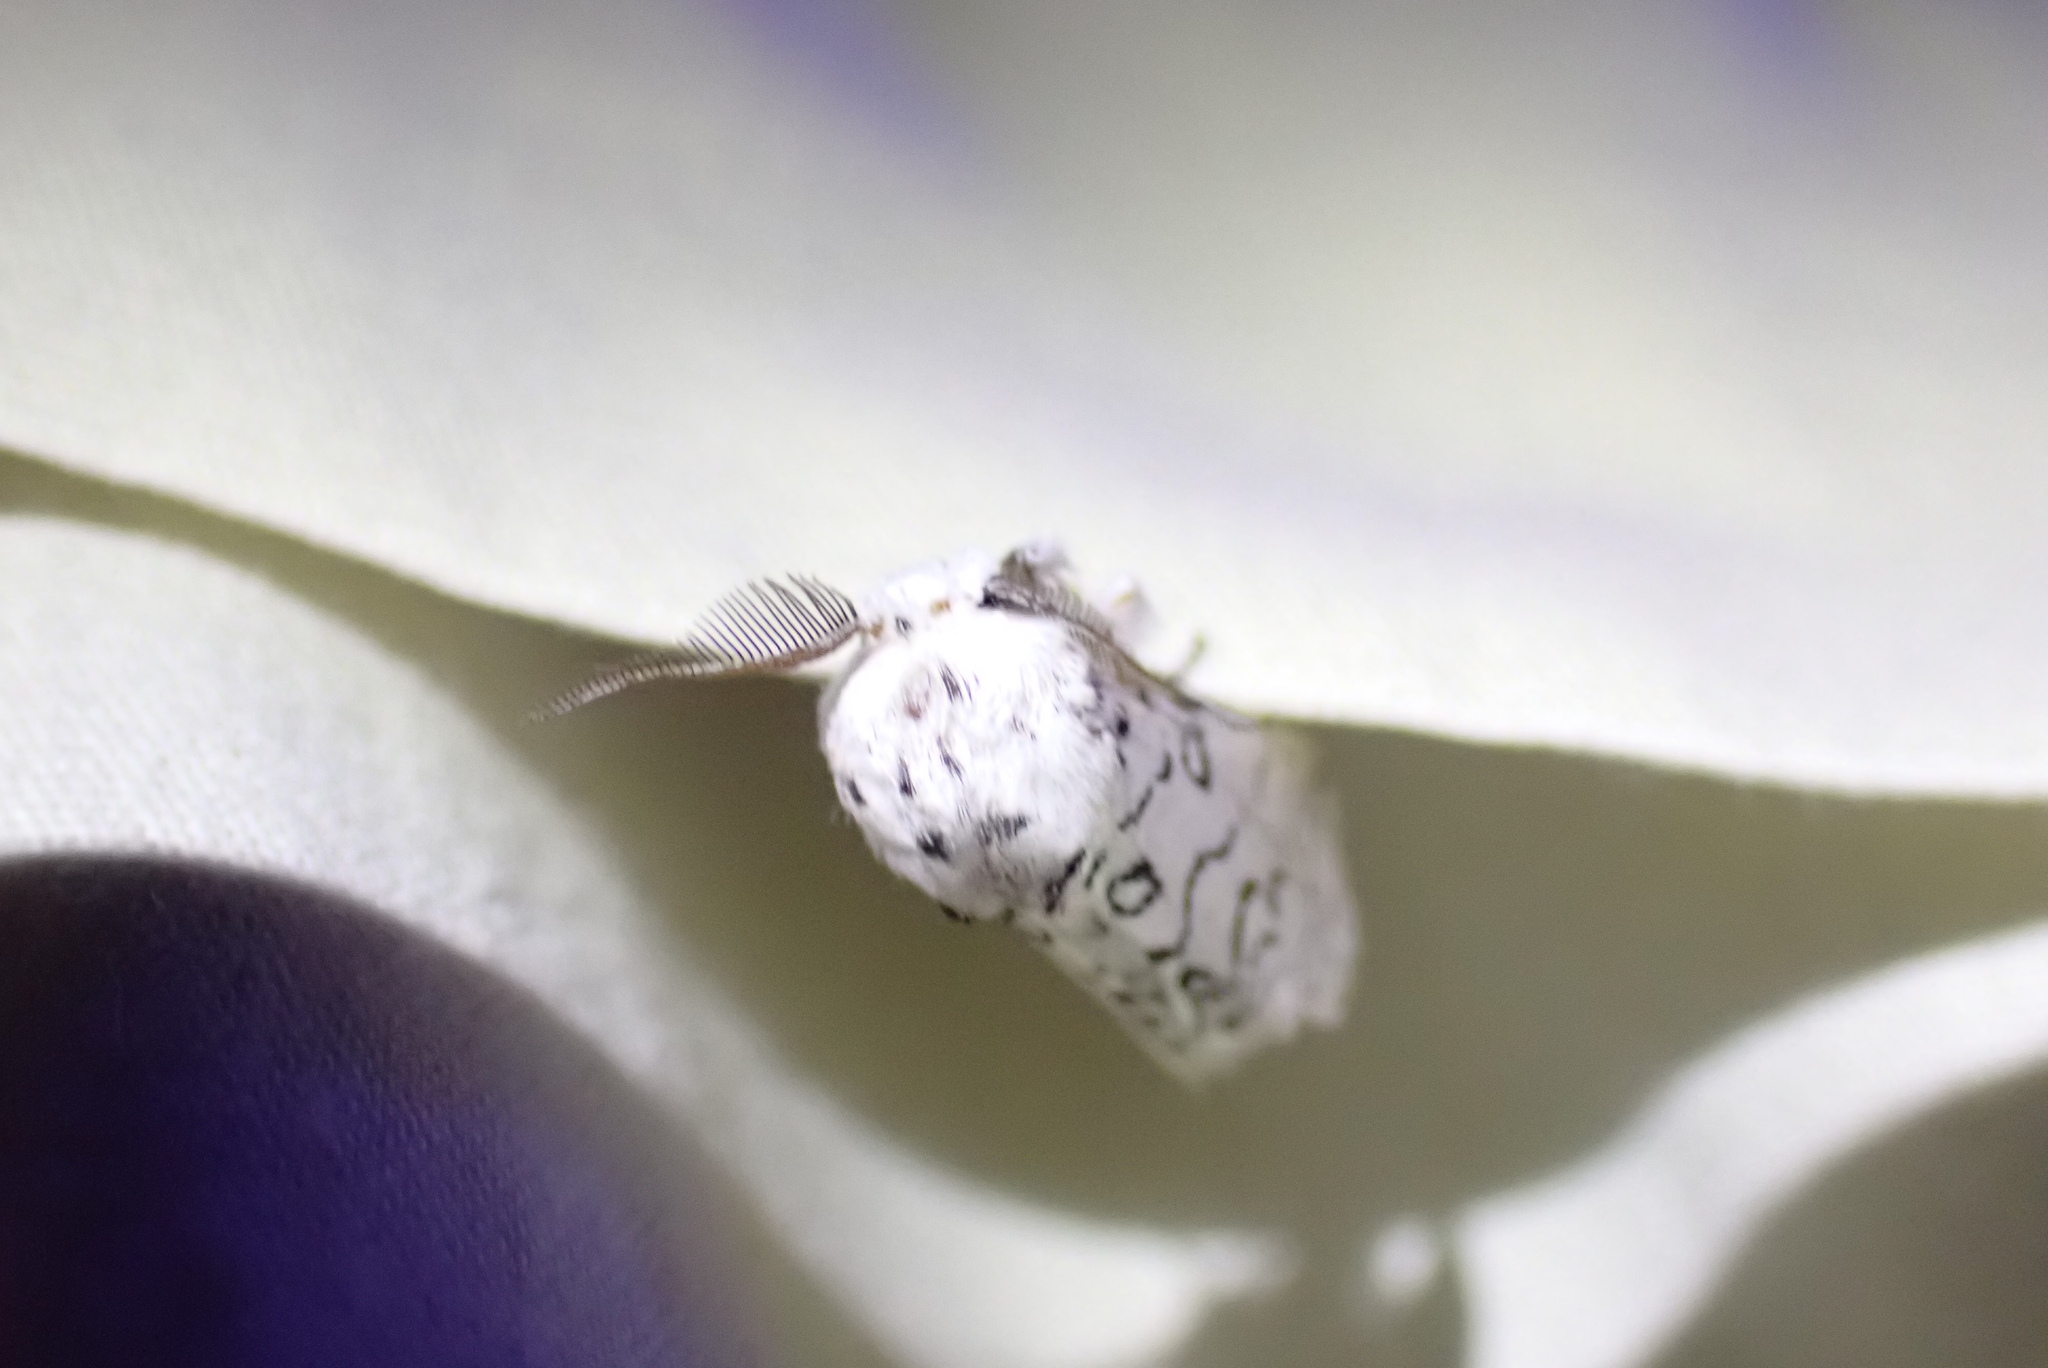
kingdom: Animalia
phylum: Arthropoda
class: Insecta
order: Lepidoptera
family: Notodontidae
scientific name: Notodontidae
